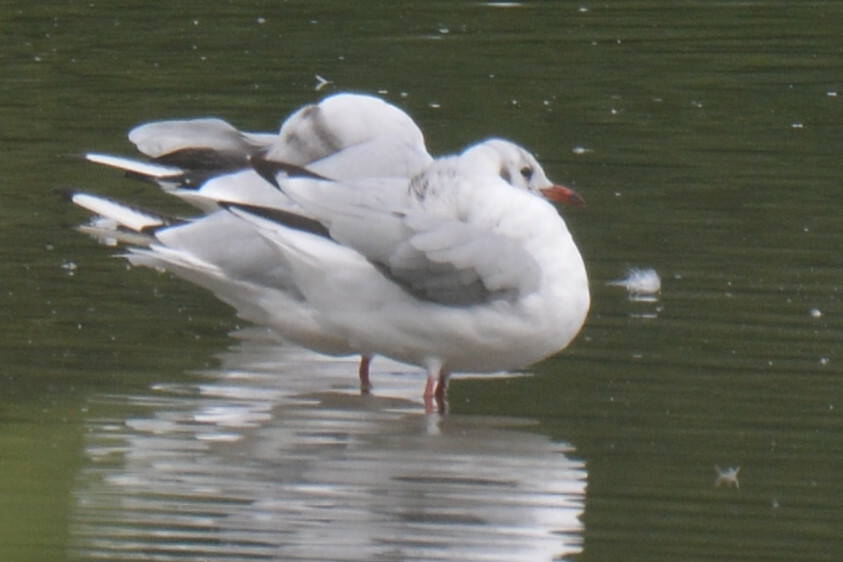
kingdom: Animalia
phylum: Chordata
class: Aves
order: Charadriiformes
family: Laridae
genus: Chroicocephalus
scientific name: Chroicocephalus ridibundus
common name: Black-headed gull
